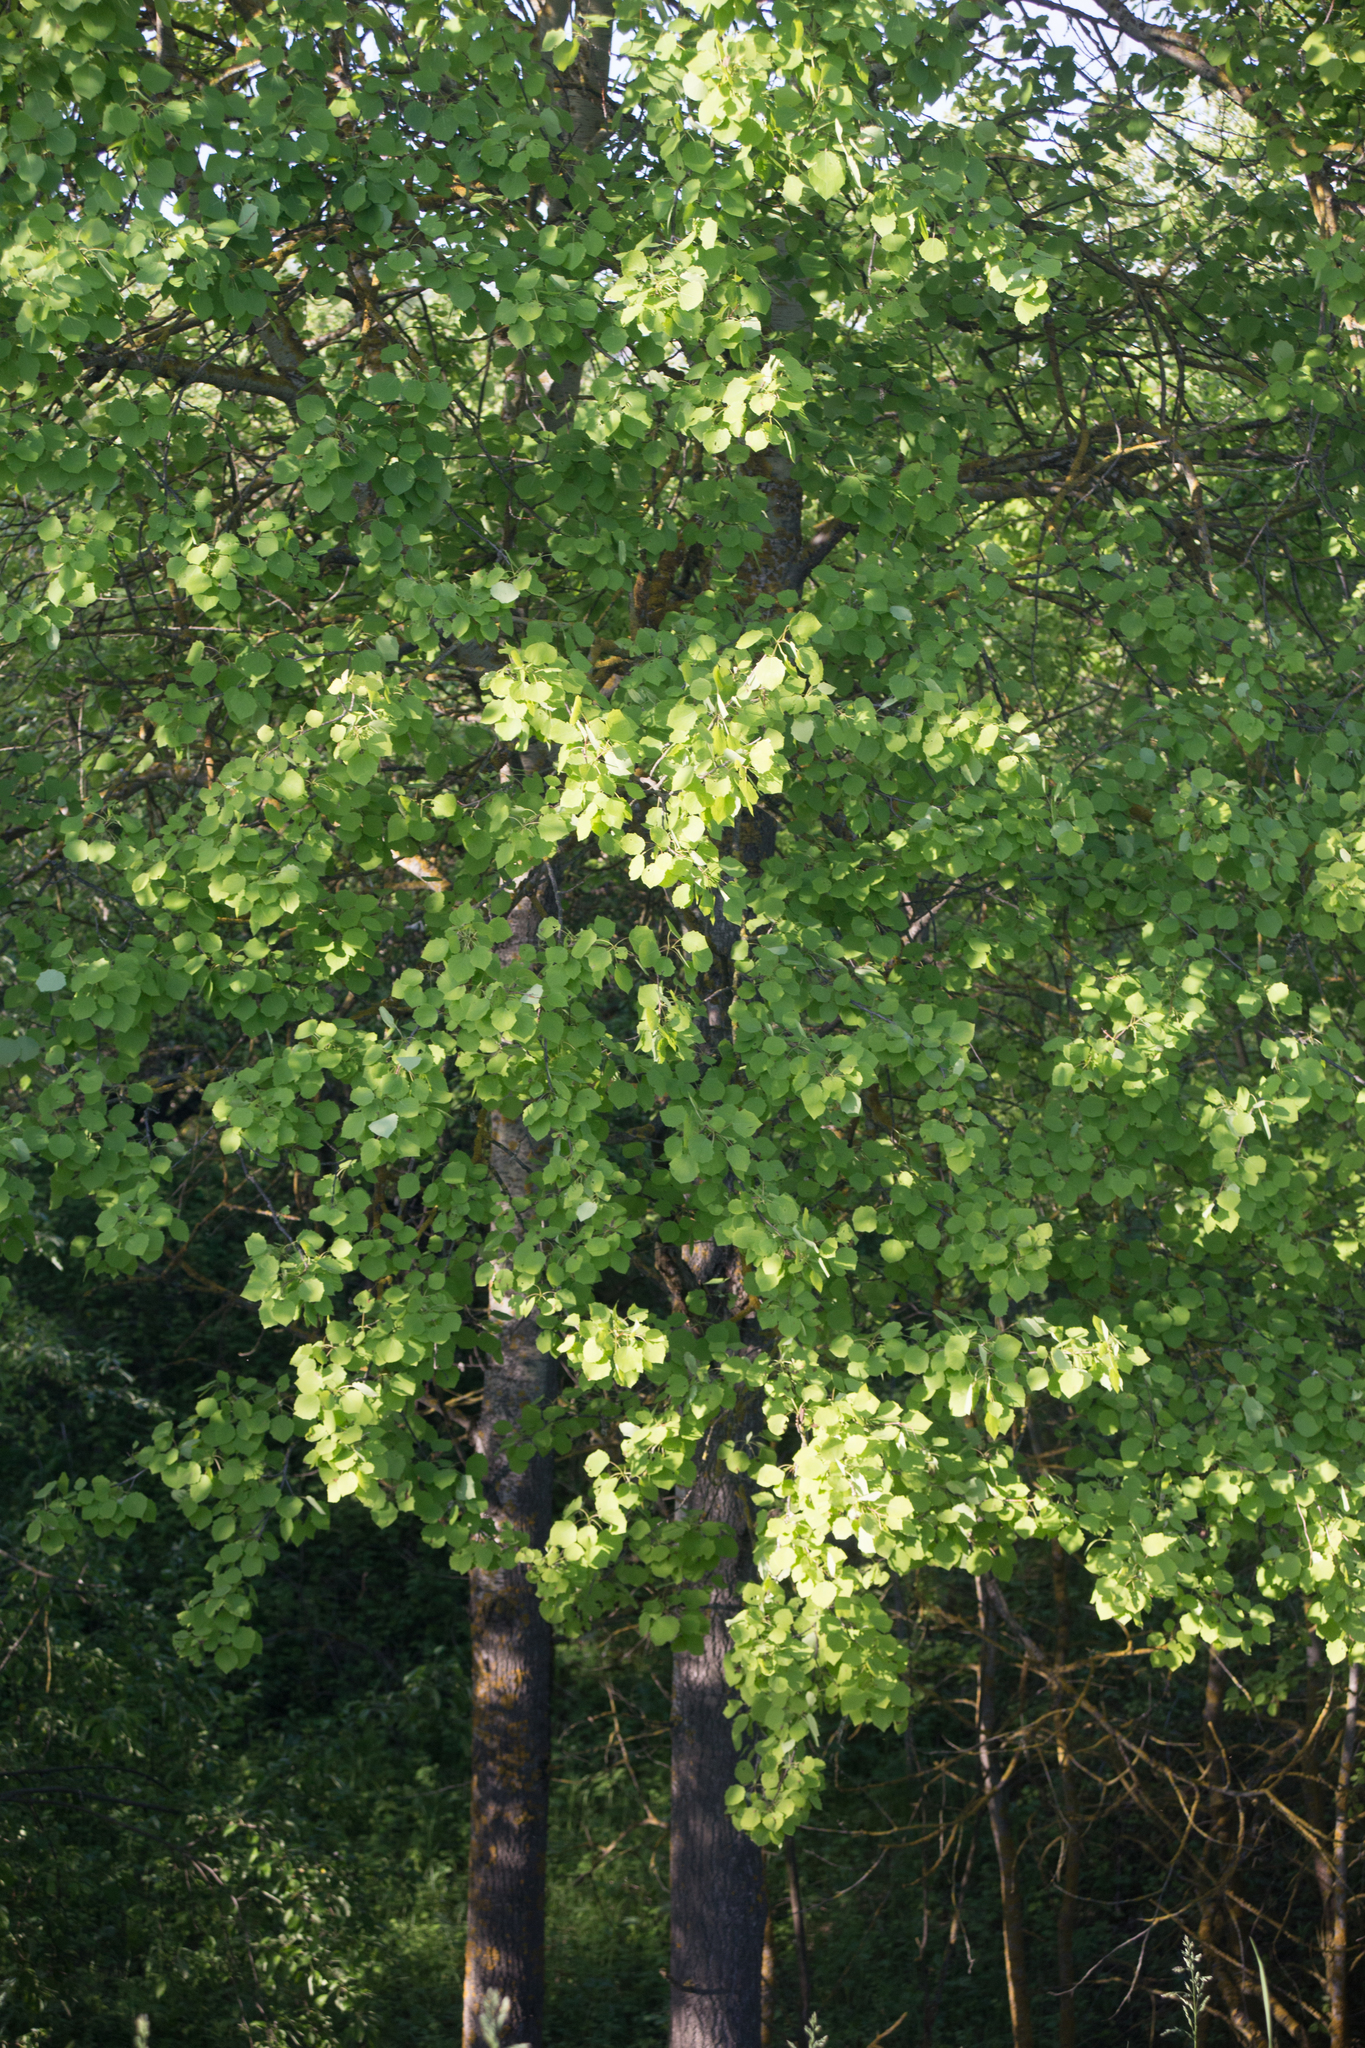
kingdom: Plantae
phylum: Tracheophyta
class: Magnoliopsida
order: Malpighiales
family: Salicaceae
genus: Populus
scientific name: Populus tremula
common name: European aspen
